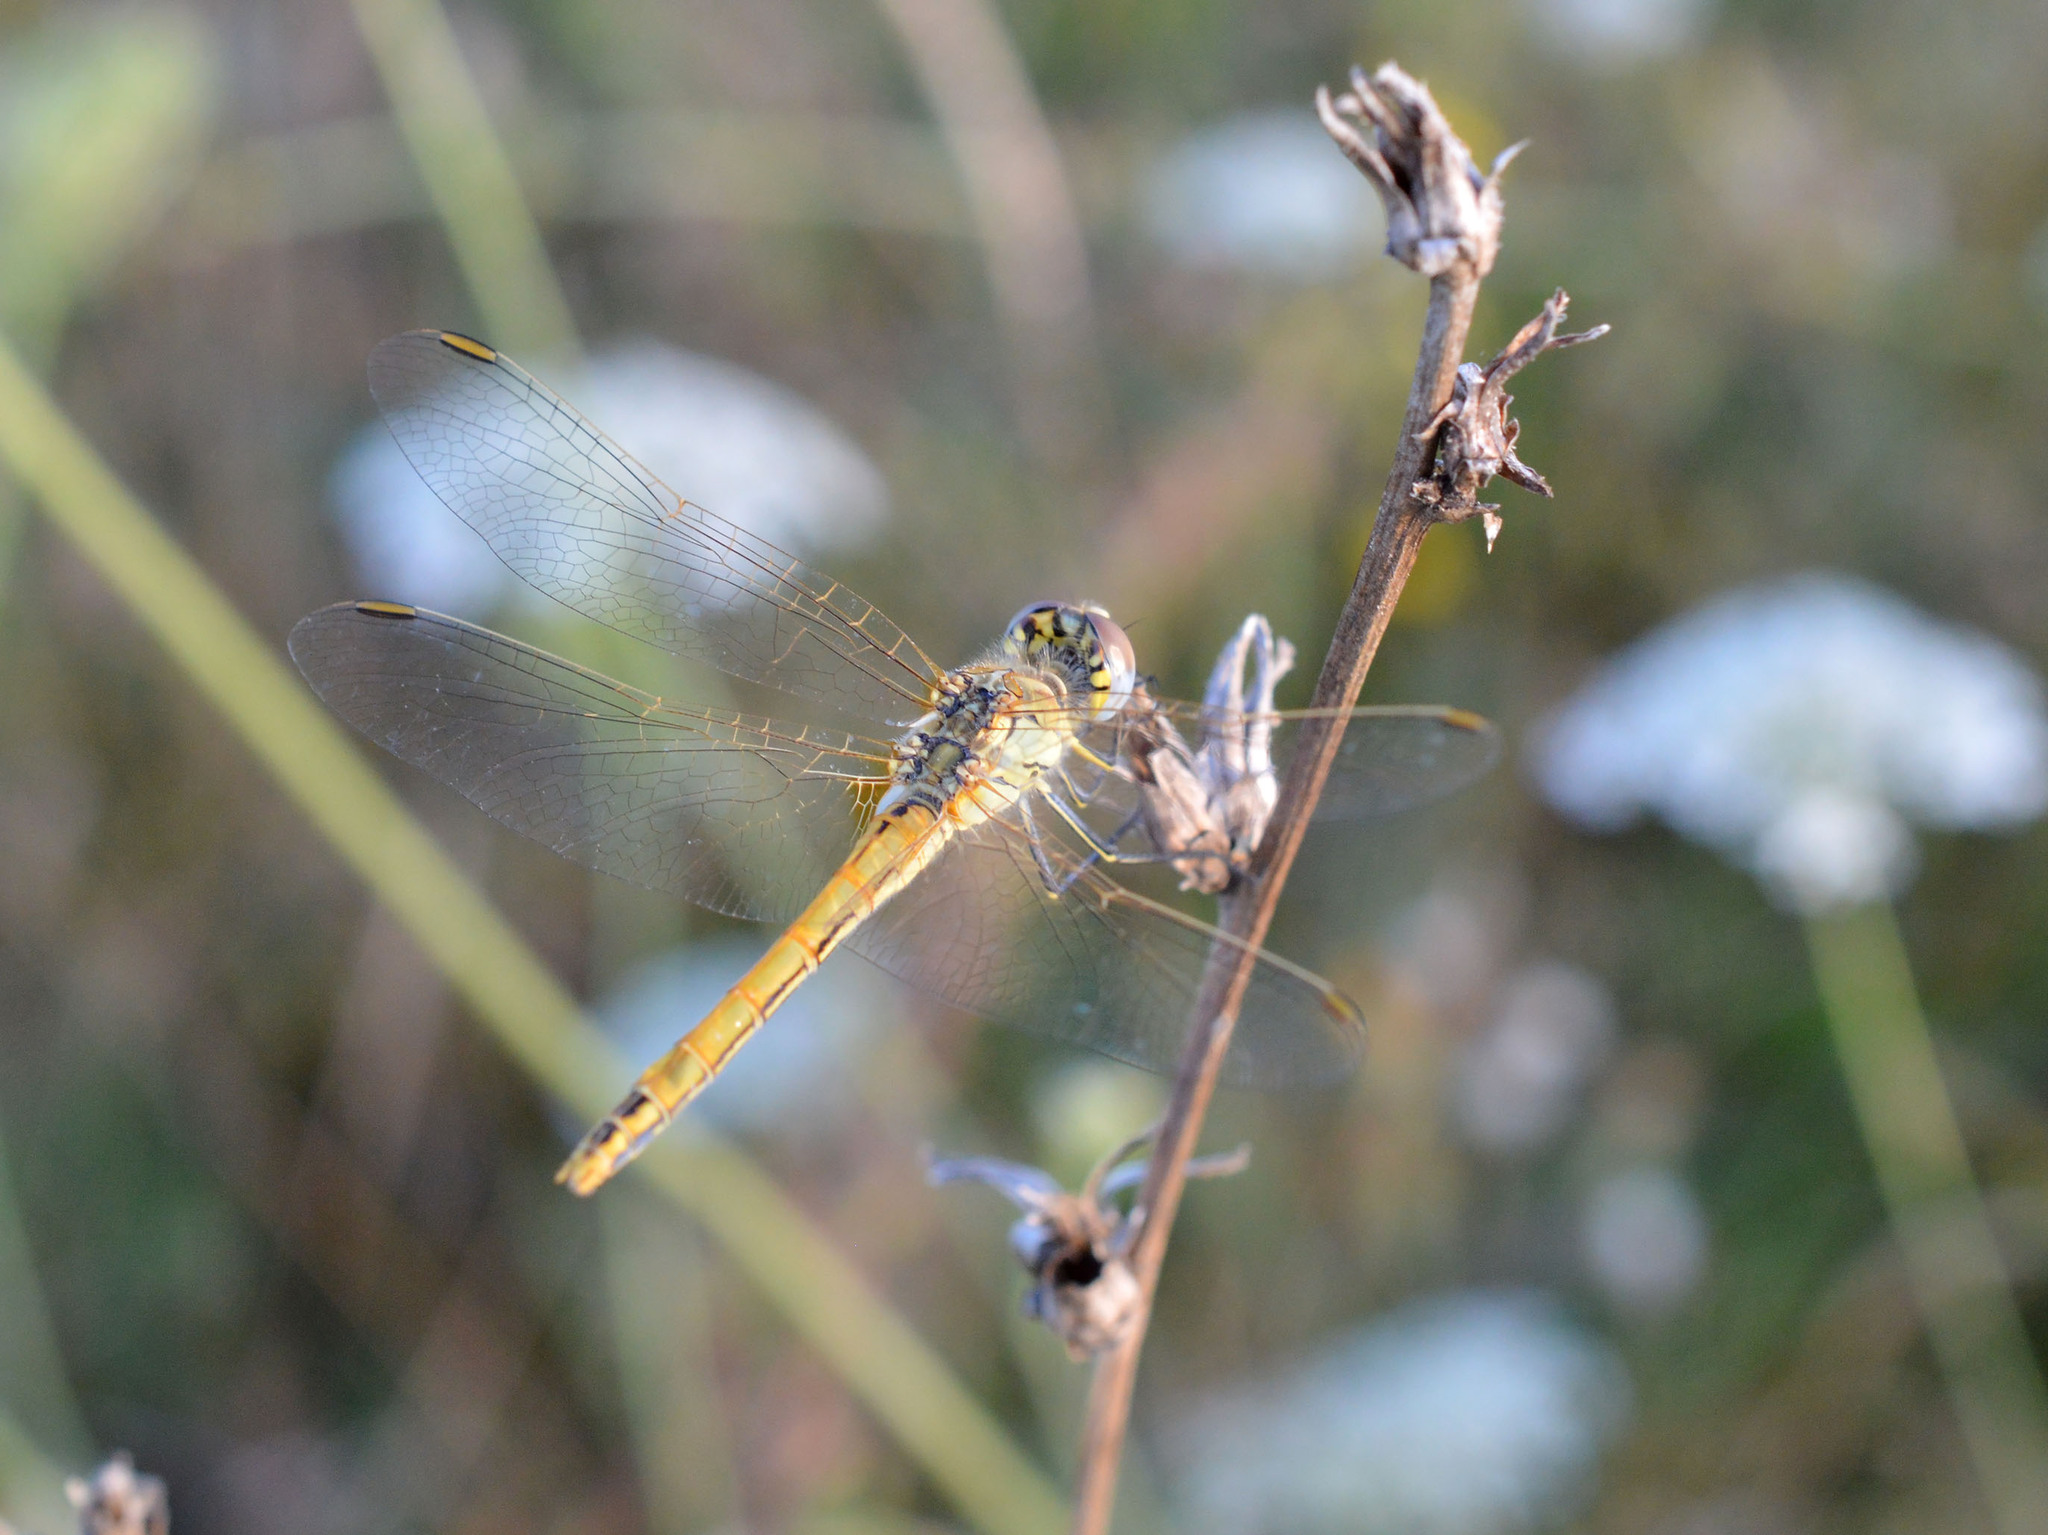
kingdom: Animalia
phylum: Arthropoda
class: Insecta
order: Odonata
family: Libellulidae
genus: Sympetrum
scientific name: Sympetrum fonscolombii
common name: Red-veined darter
